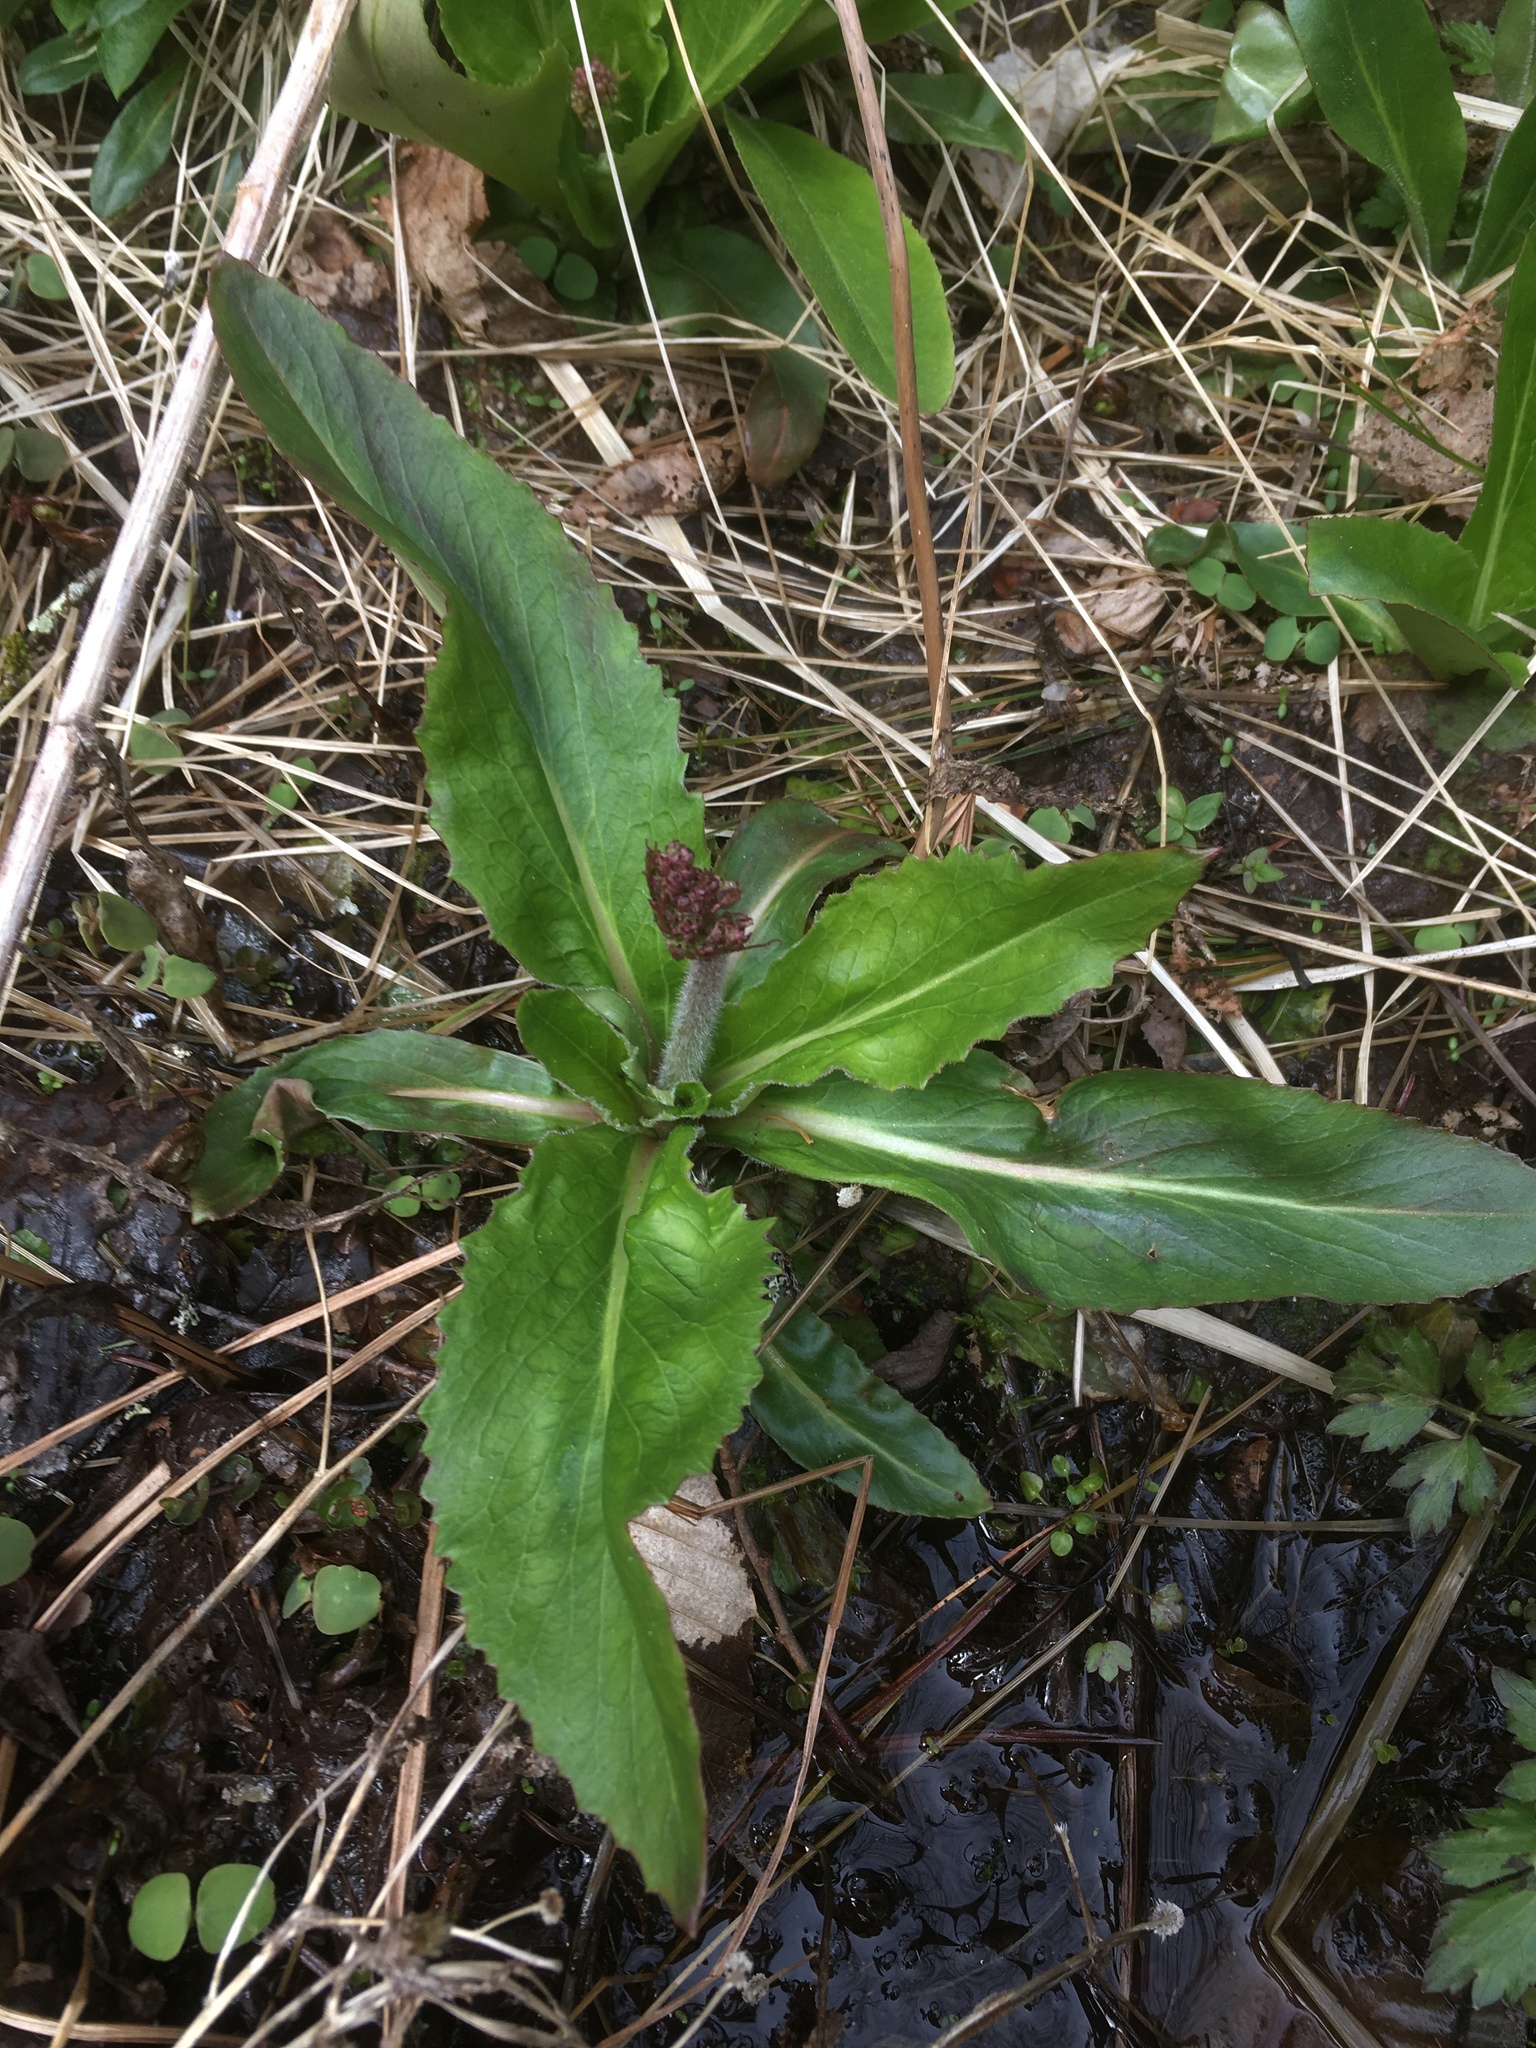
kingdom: Plantae
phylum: Tracheophyta
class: Magnoliopsida
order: Saxifragales
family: Saxifragaceae
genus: Micranthes
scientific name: Micranthes pensylvanica
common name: Marsh saxifrage
